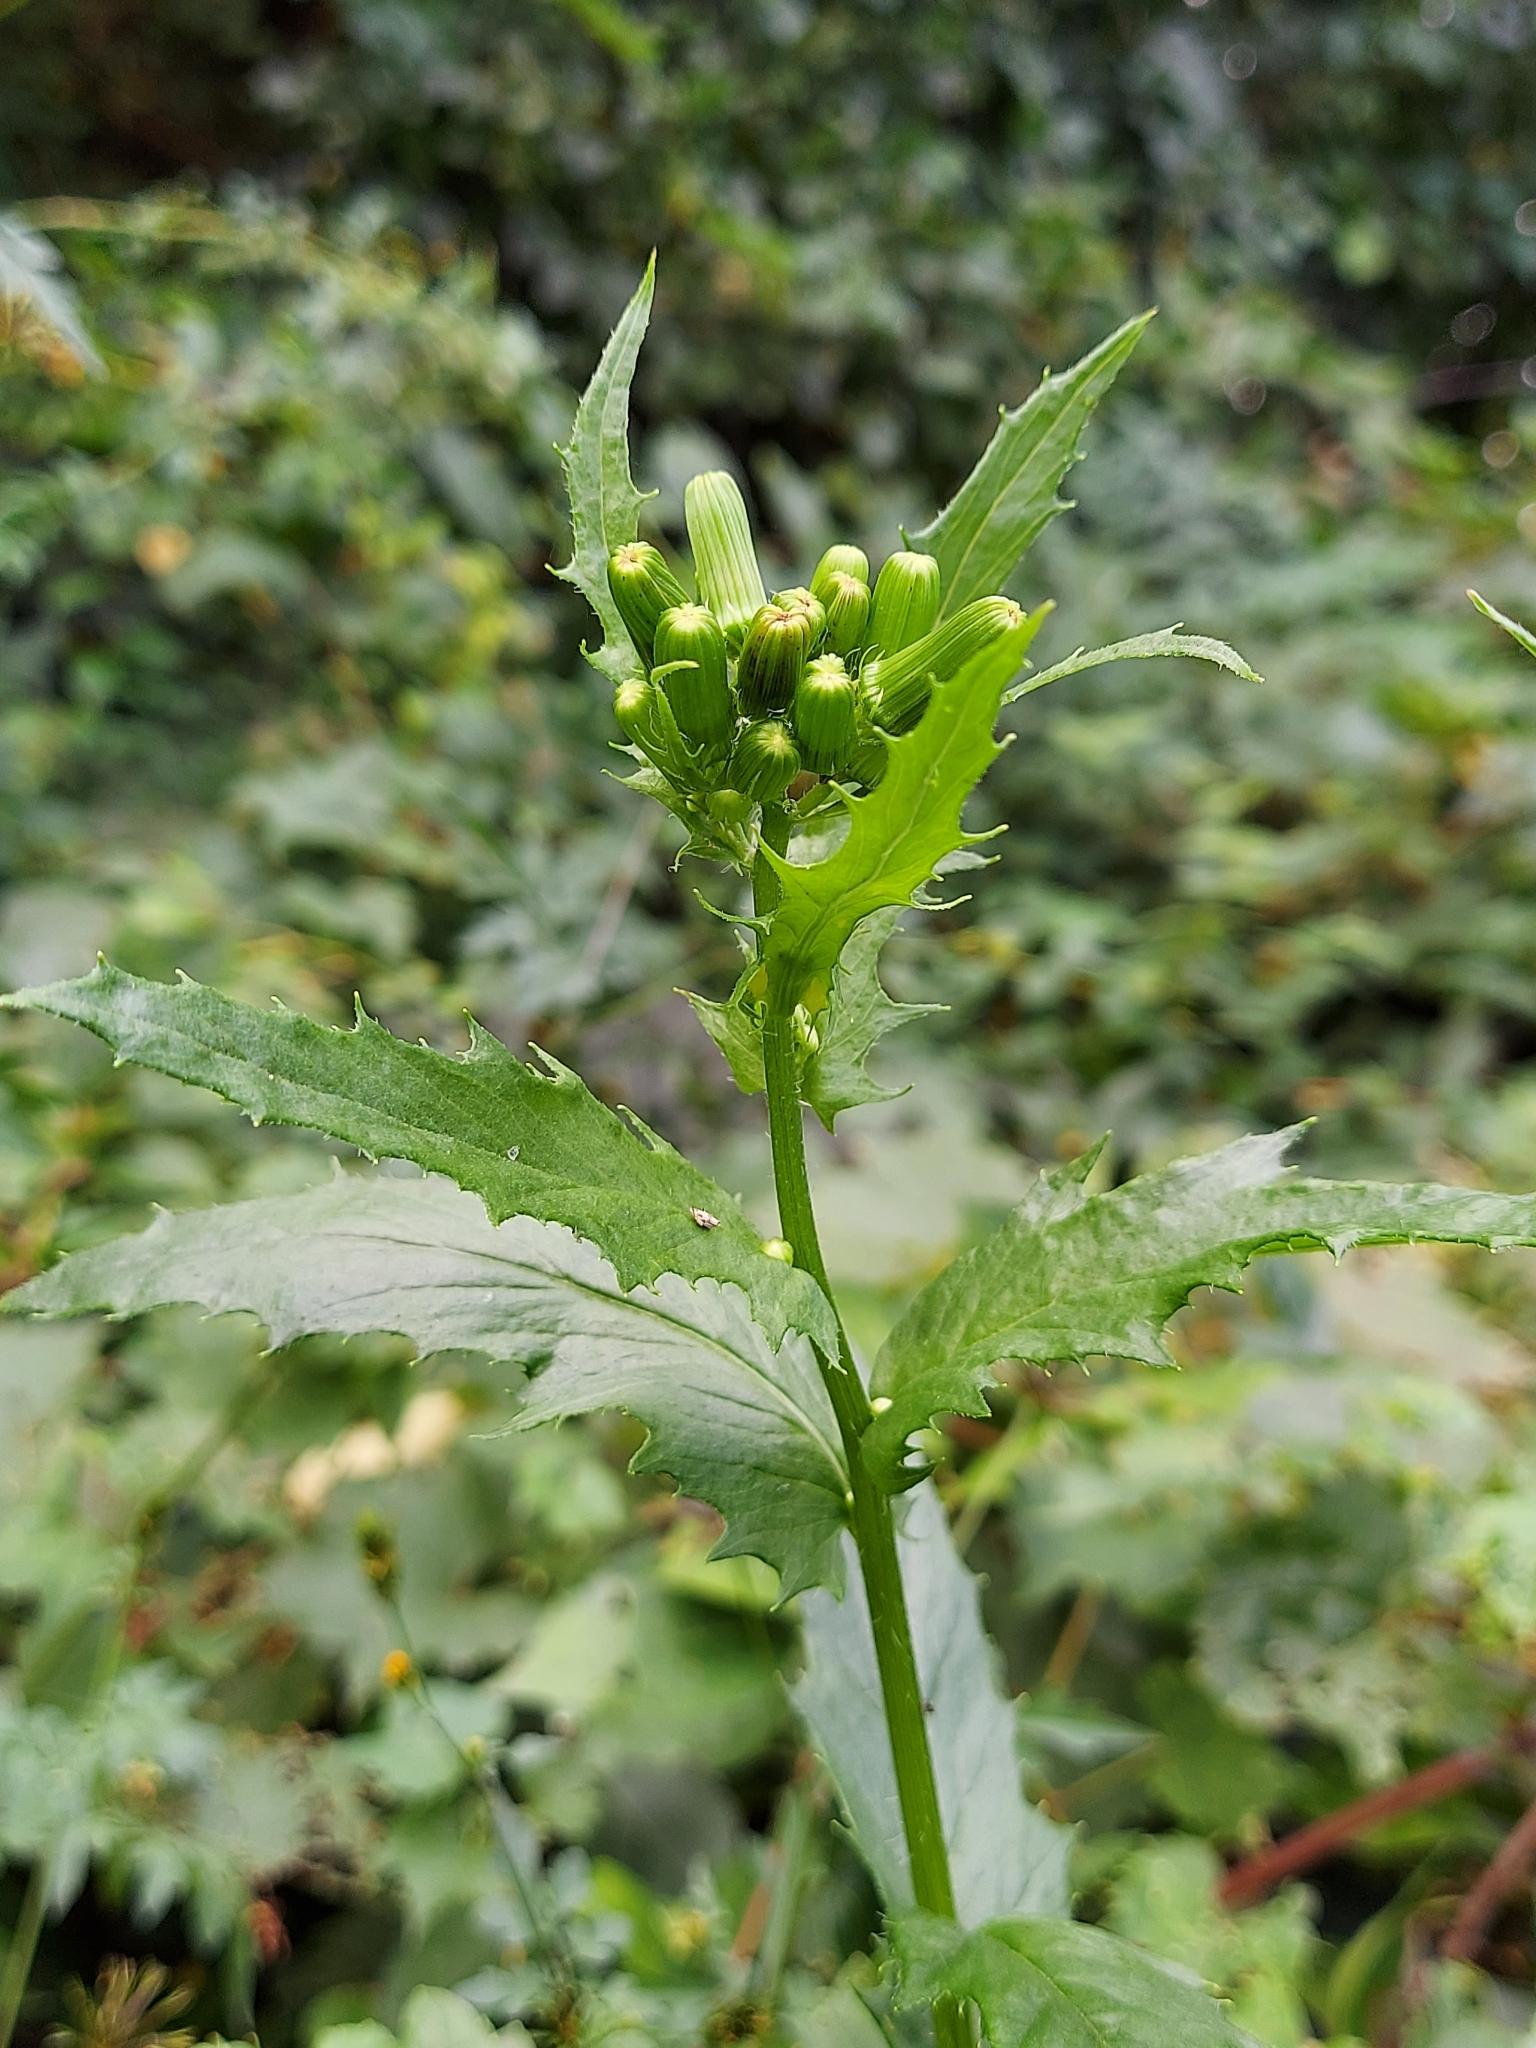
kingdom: Plantae
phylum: Tracheophyta
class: Magnoliopsida
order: Asterales
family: Asteraceae
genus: Erechtites
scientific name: Erechtites hieraciifolius
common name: American burnweed
